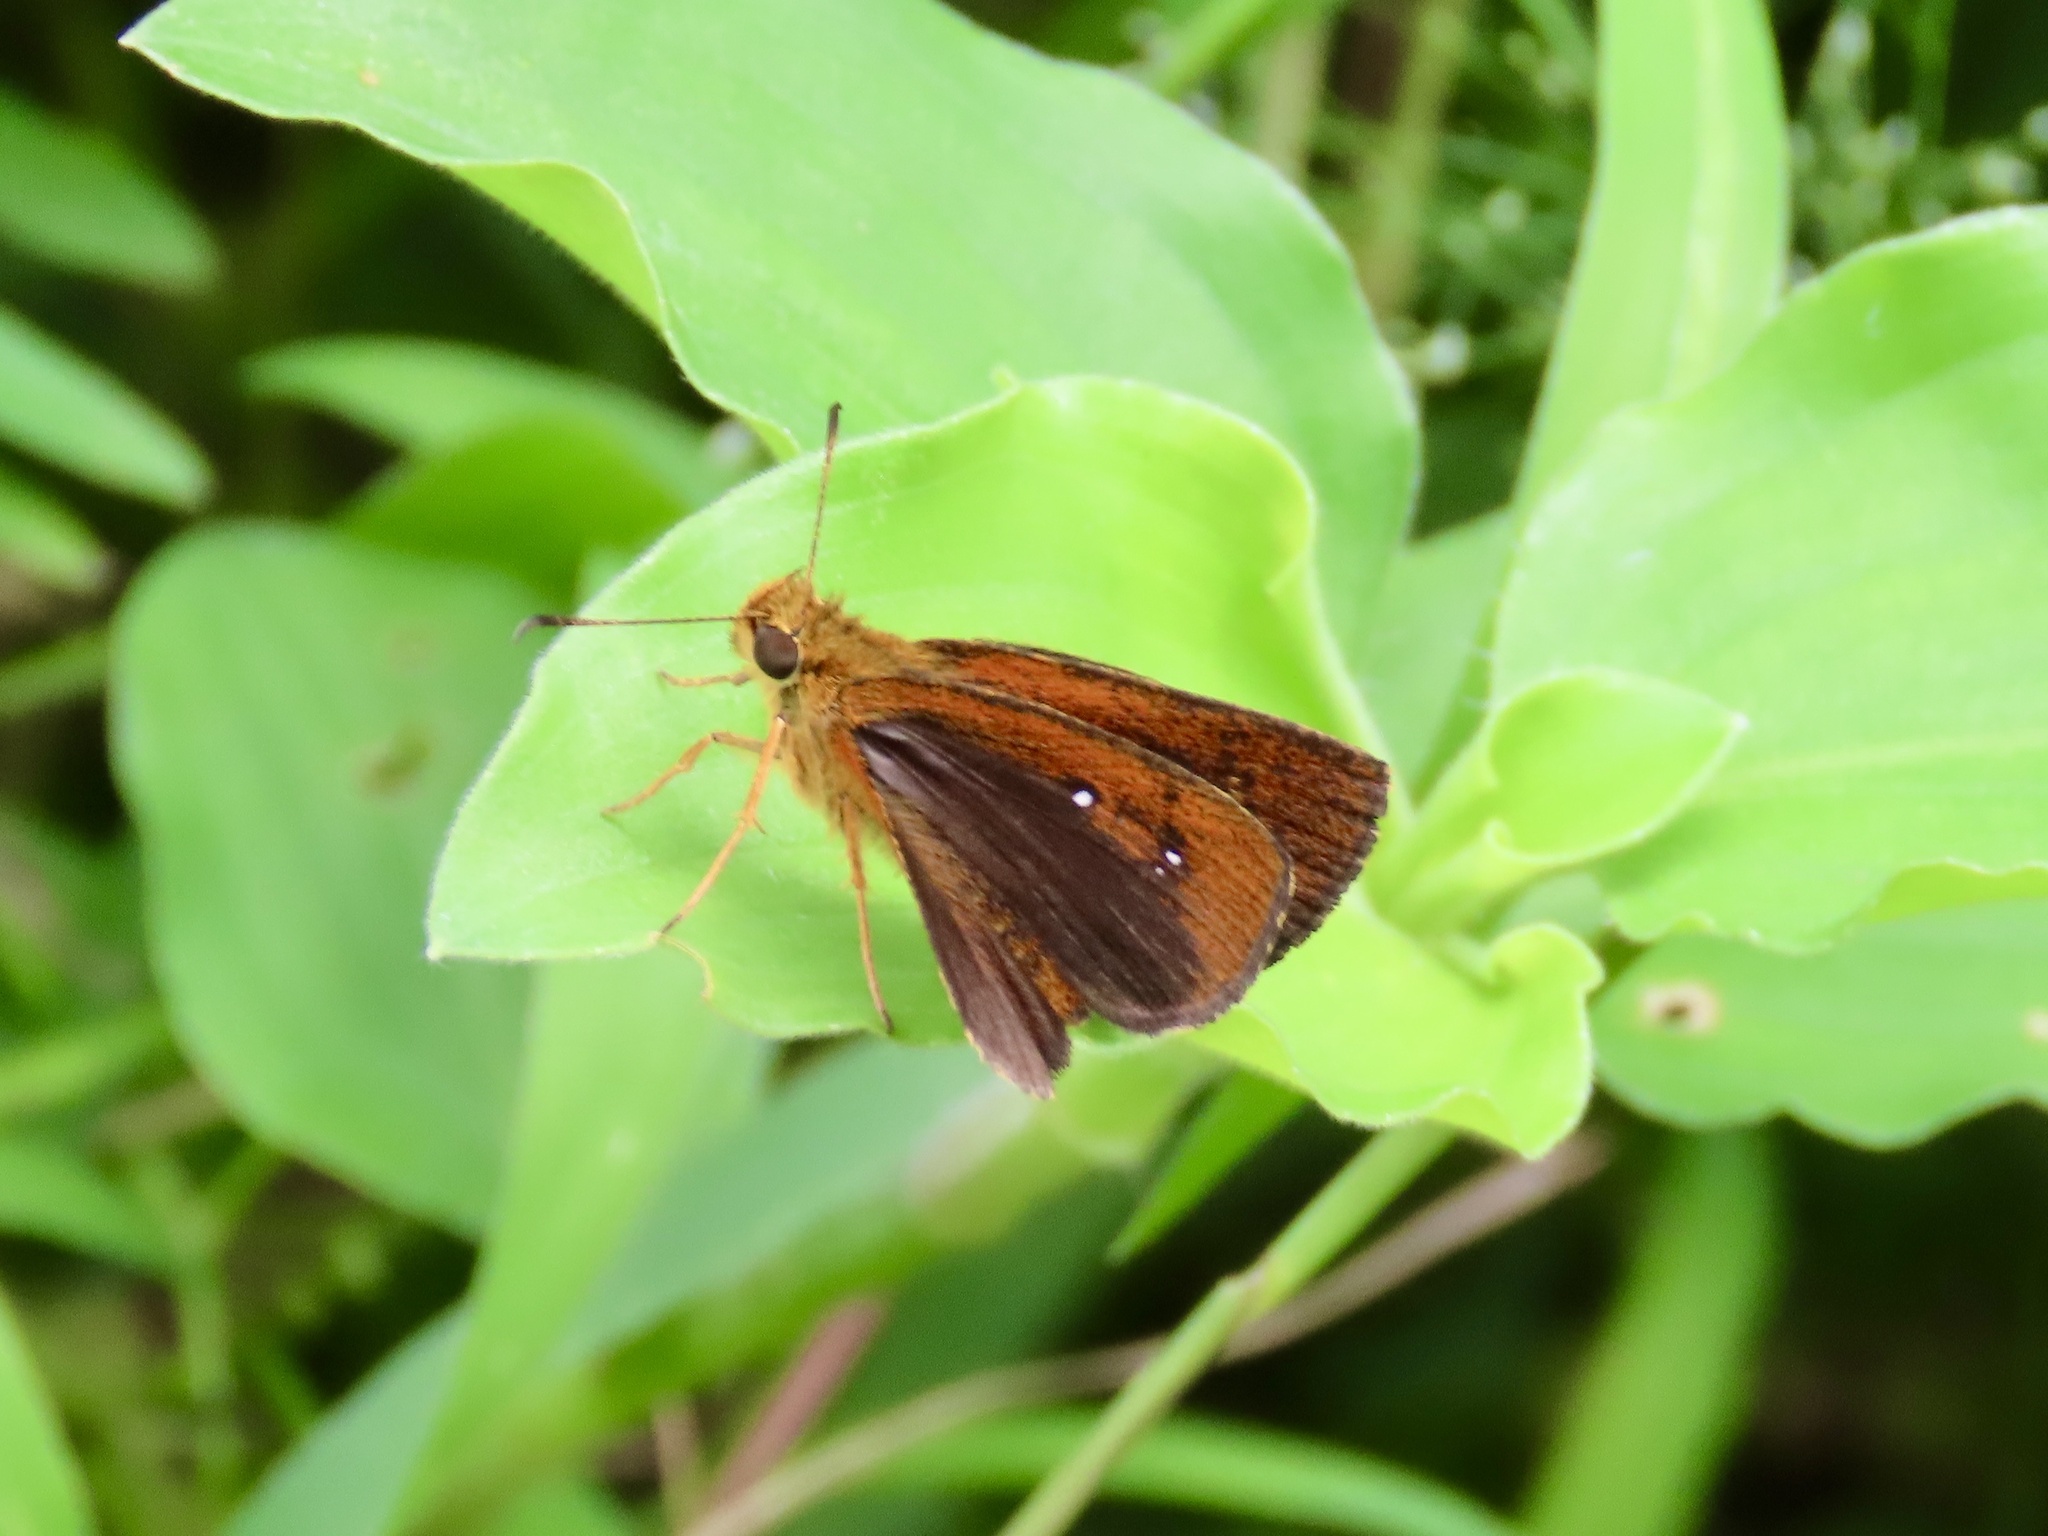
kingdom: Animalia
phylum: Arthropoda
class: Insecta
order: Lepidoptera
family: Hesperiidae
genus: Iambrix
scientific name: Iambrix salsala
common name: Chestnut bob
